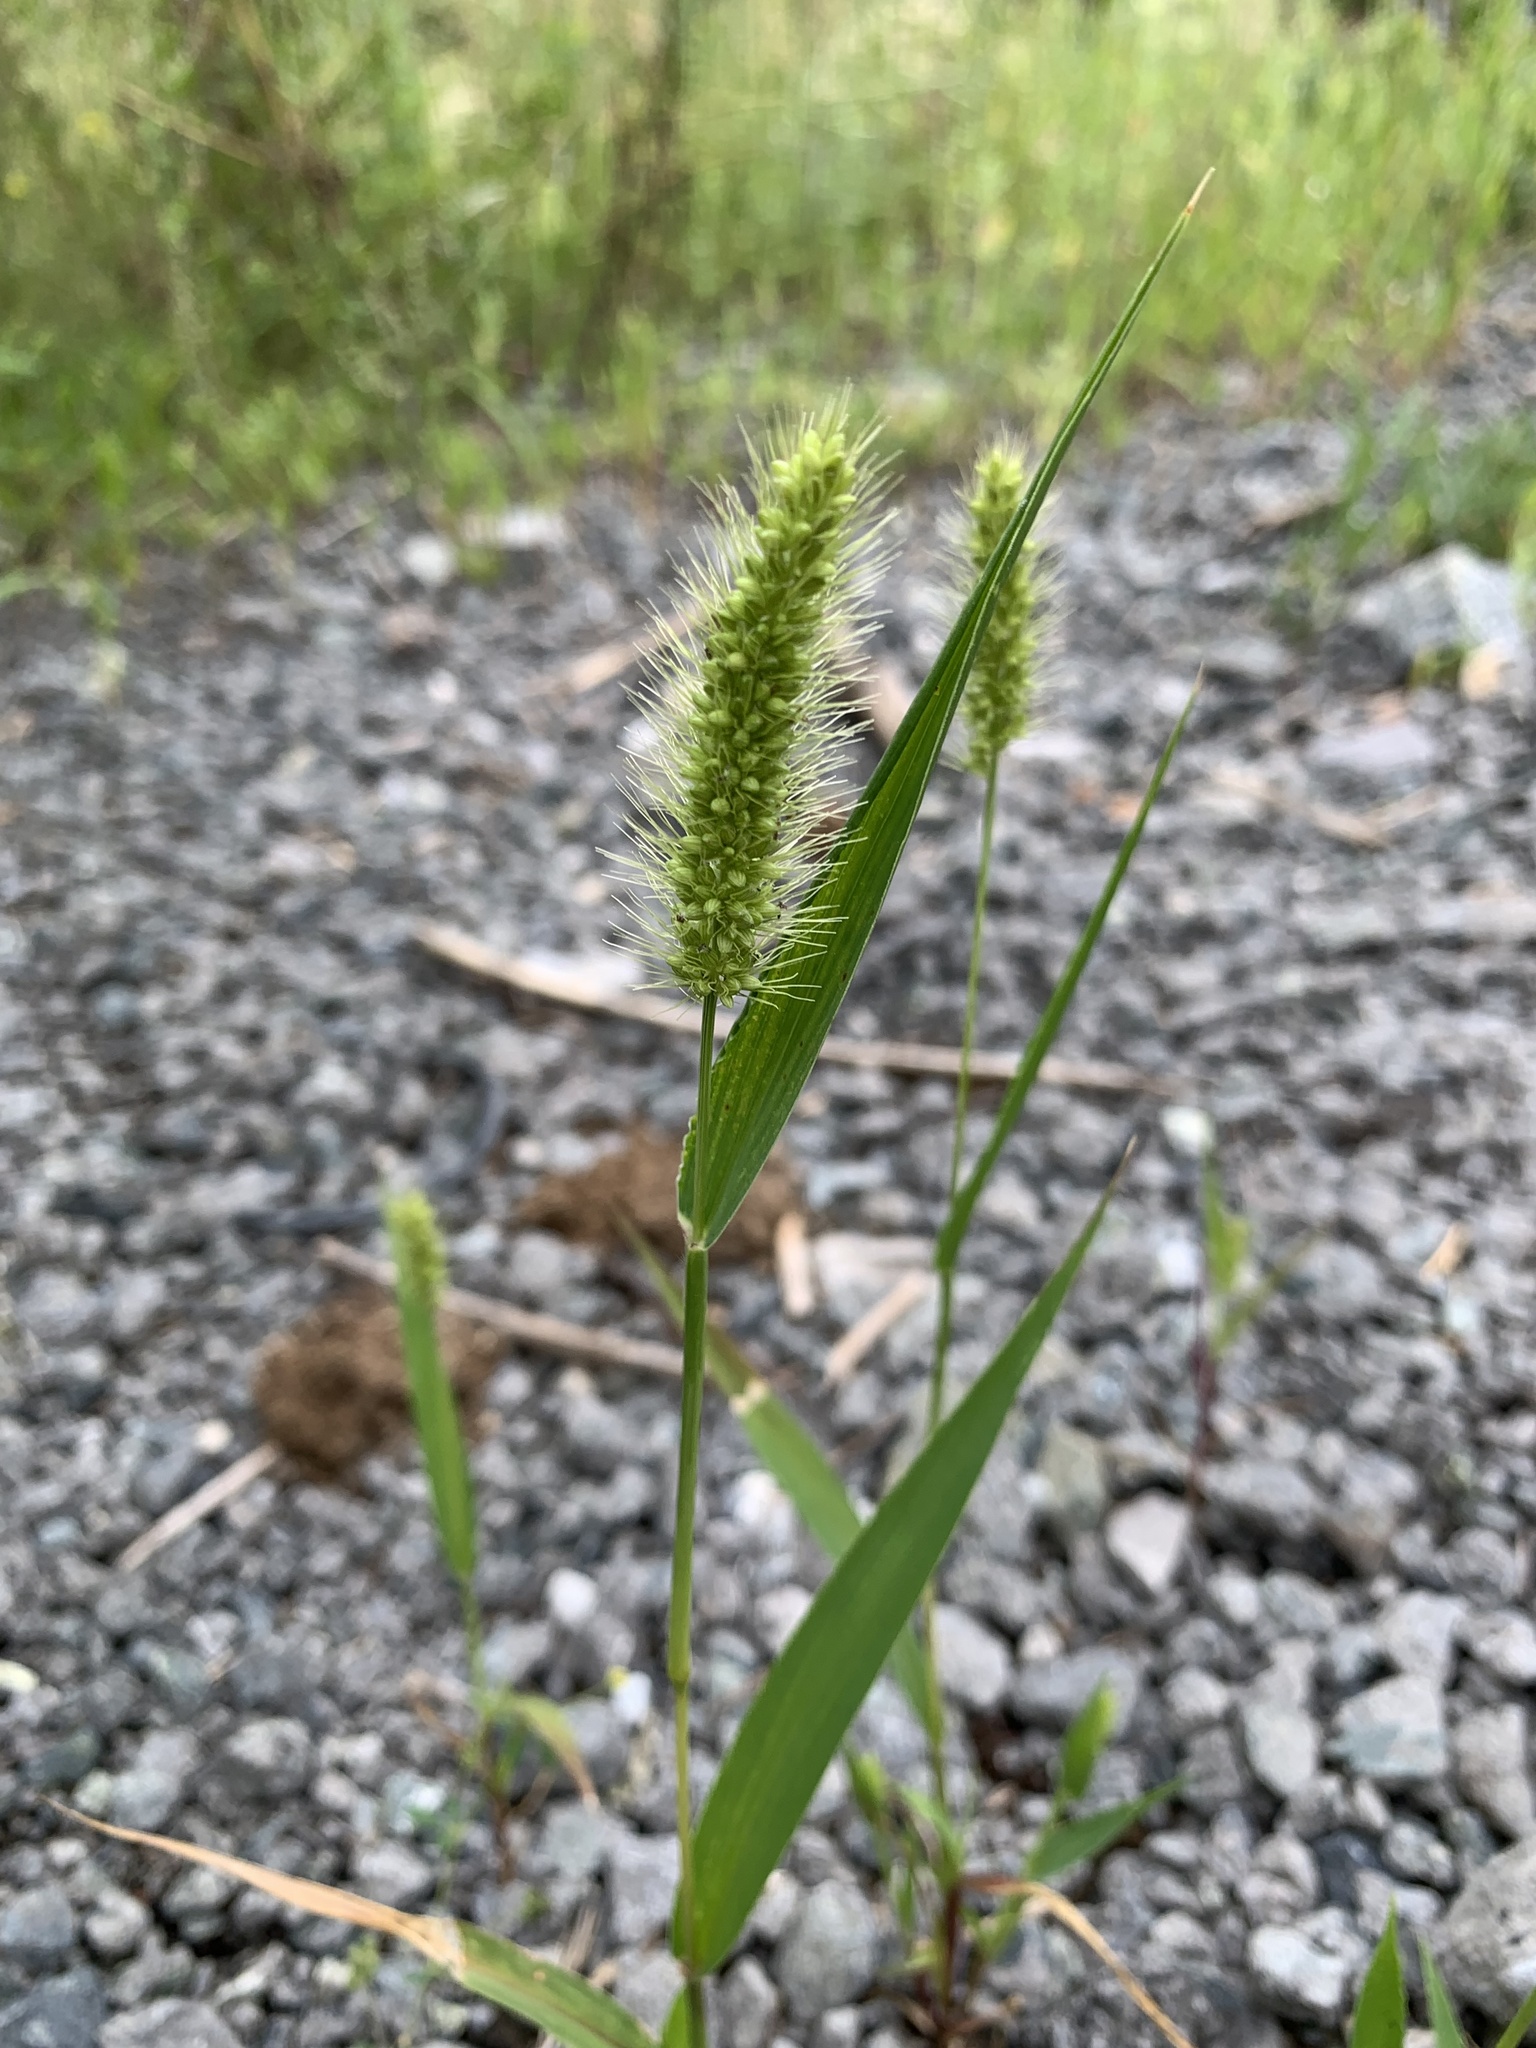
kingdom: Plantae
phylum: Tracheophyta
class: Liliopsida
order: Poales
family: Poaceae
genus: Setaria
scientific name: Setaria viridis
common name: Green bristlegrass
